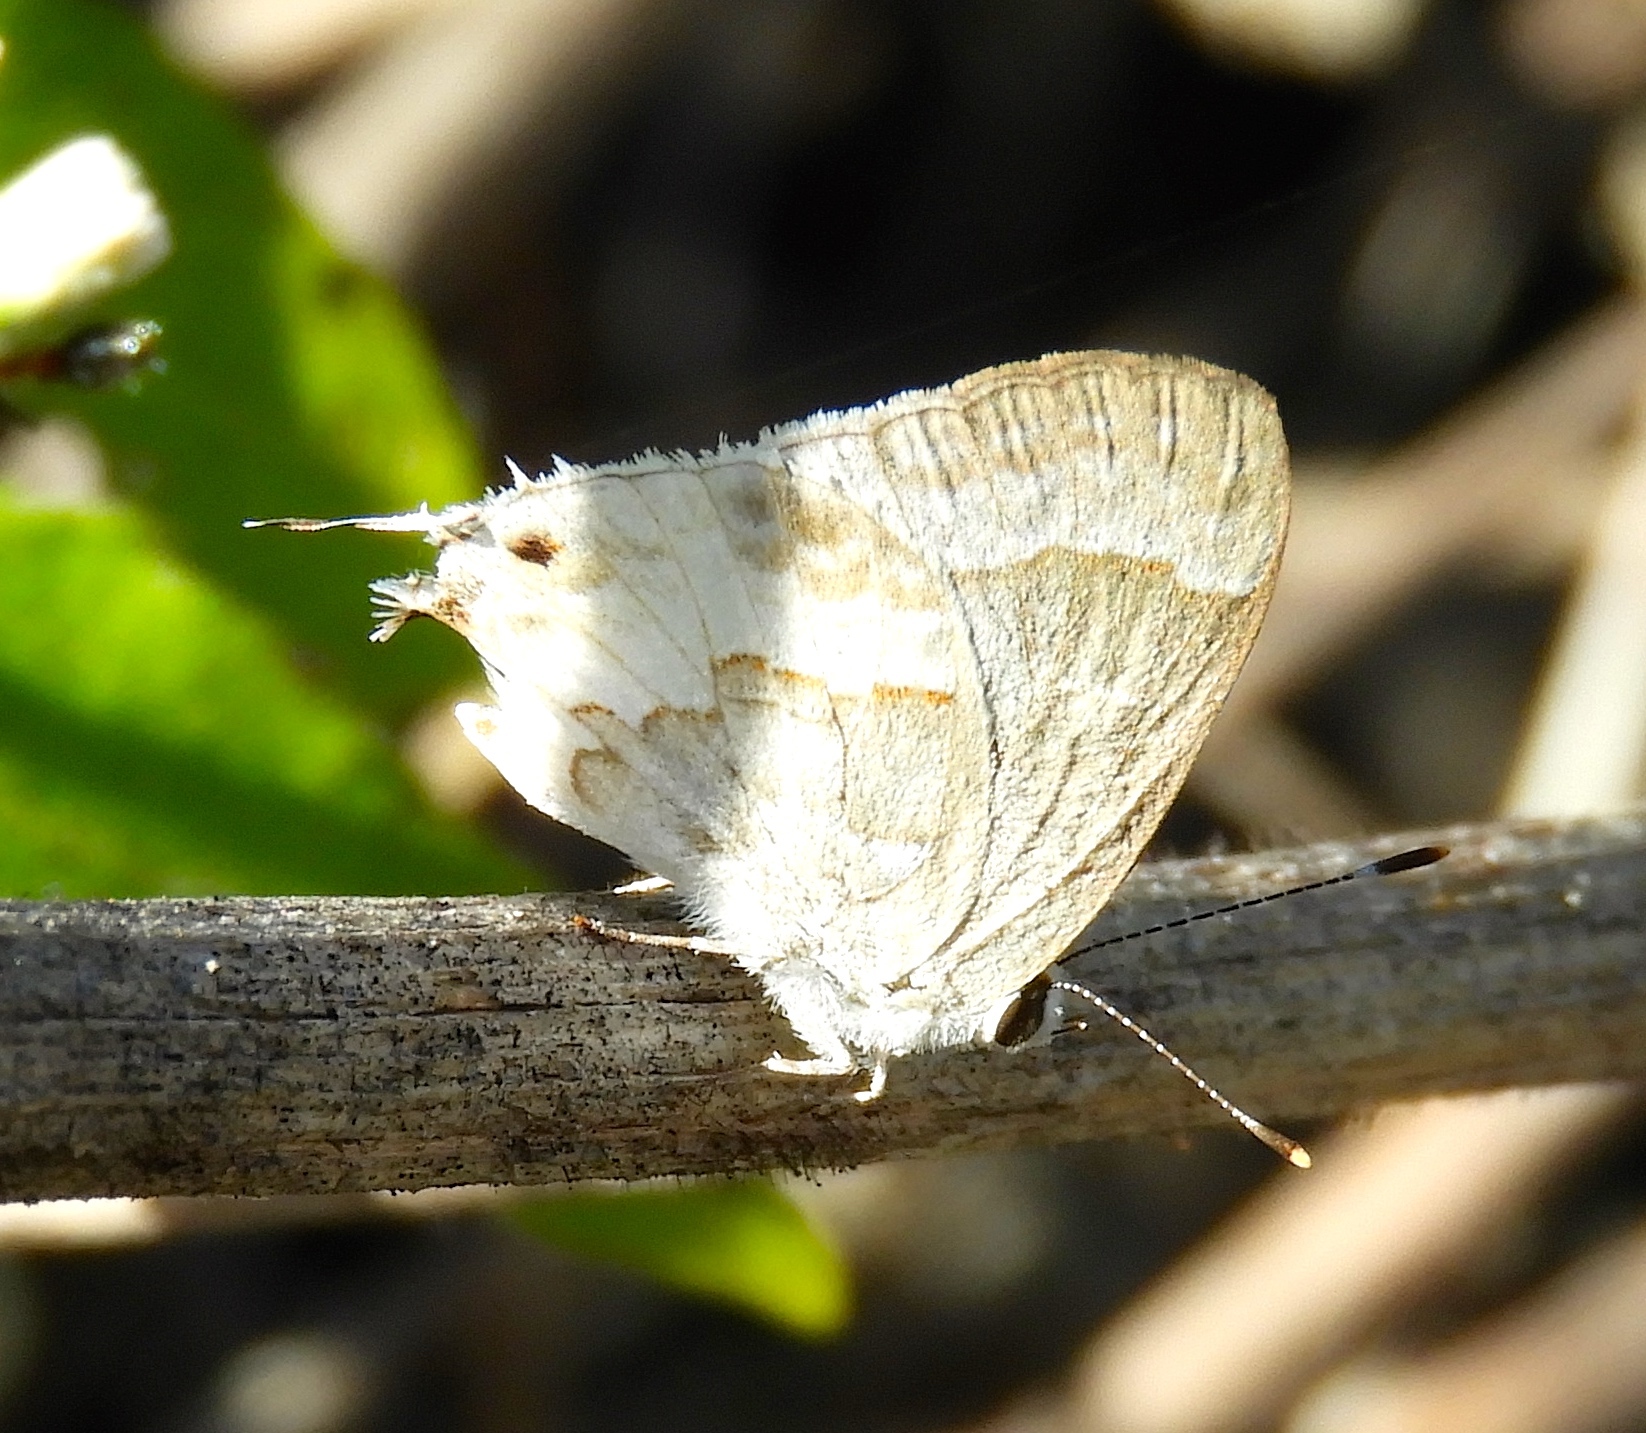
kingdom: Animalia
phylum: Arthropoda
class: Insecta
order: Lepidoptera
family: Lycaenidae
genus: Strymon
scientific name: Strymon albata
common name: White scrub-hairstreak
